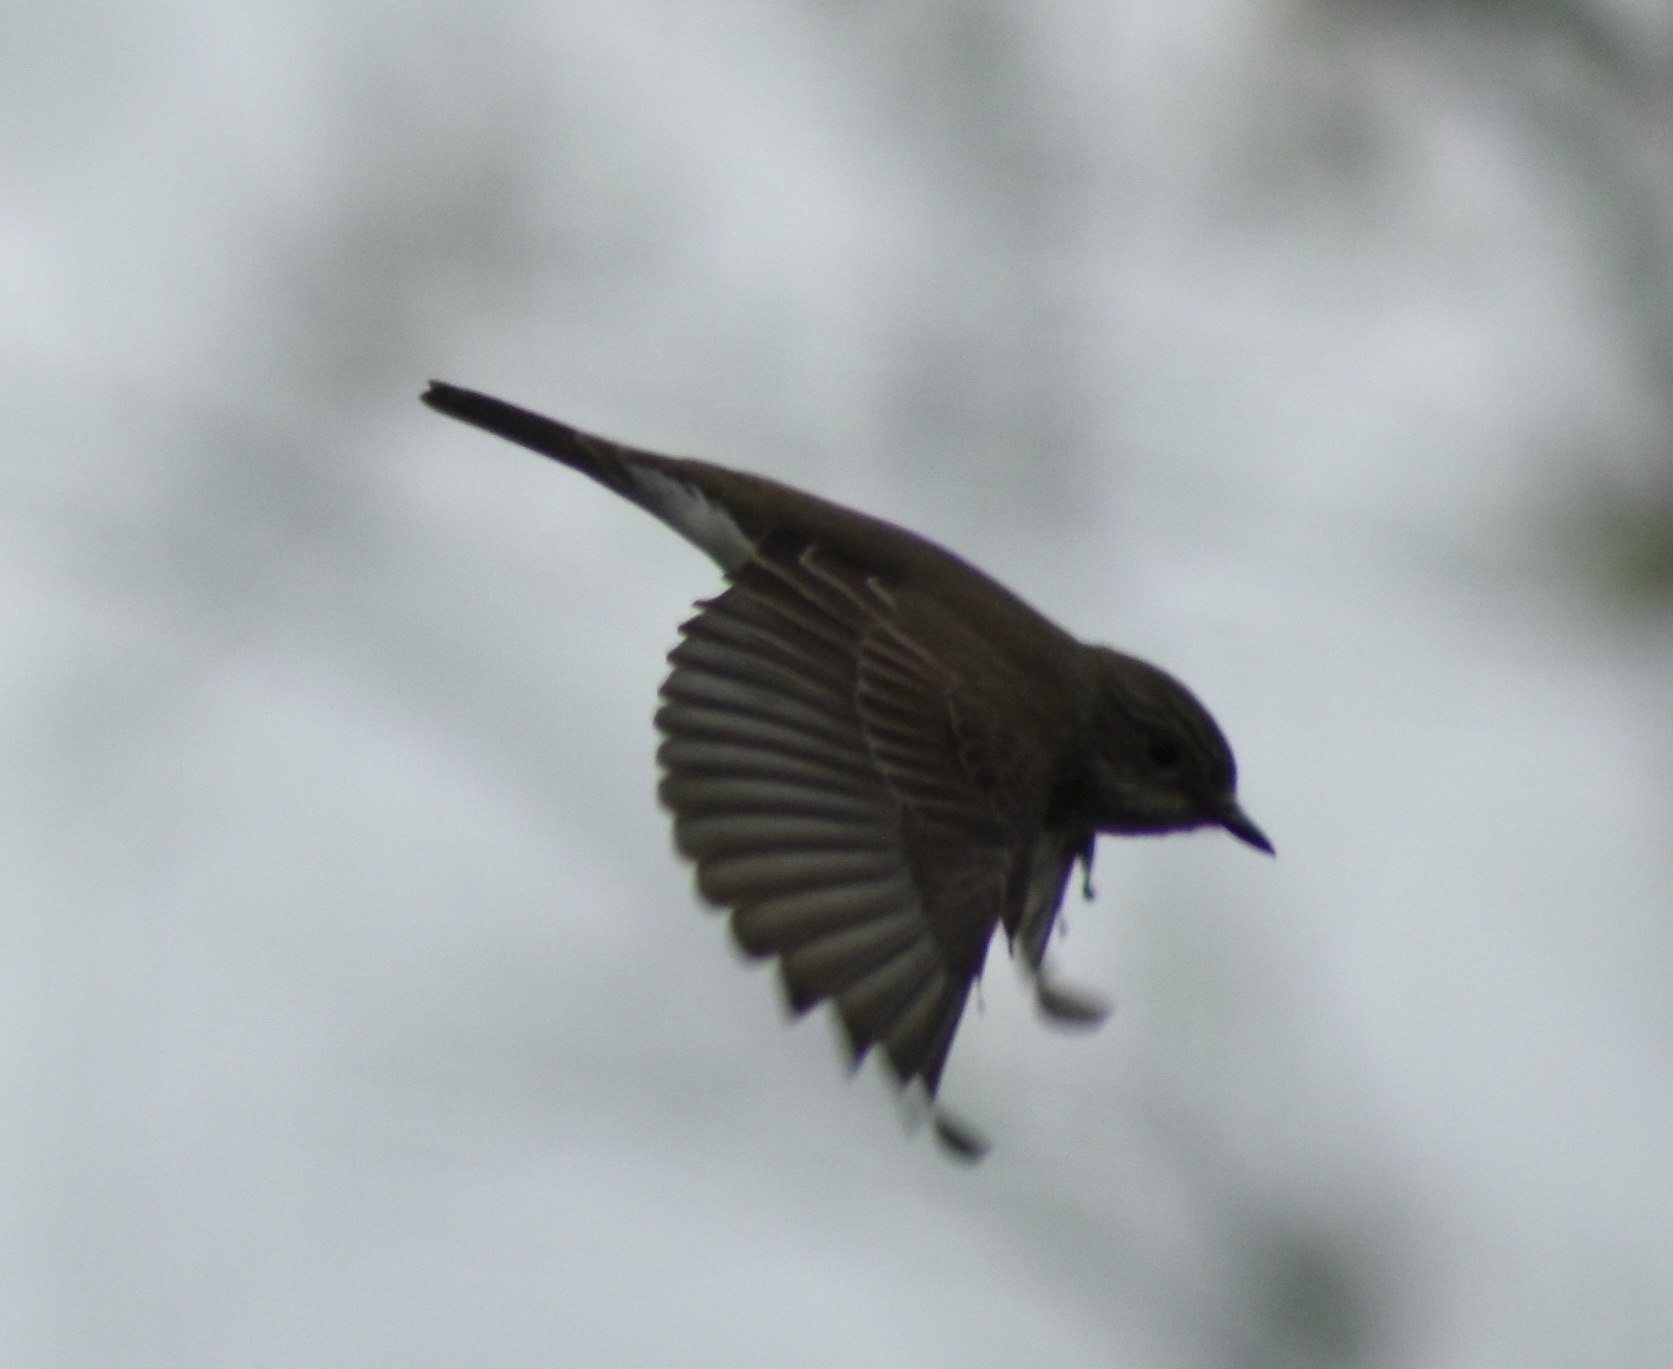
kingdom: Animalia
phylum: Chordata
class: Aves
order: Passeriformes
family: Muscicapidae
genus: Muscicapa
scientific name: Muscicapa striata
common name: Spotted flycatcher
